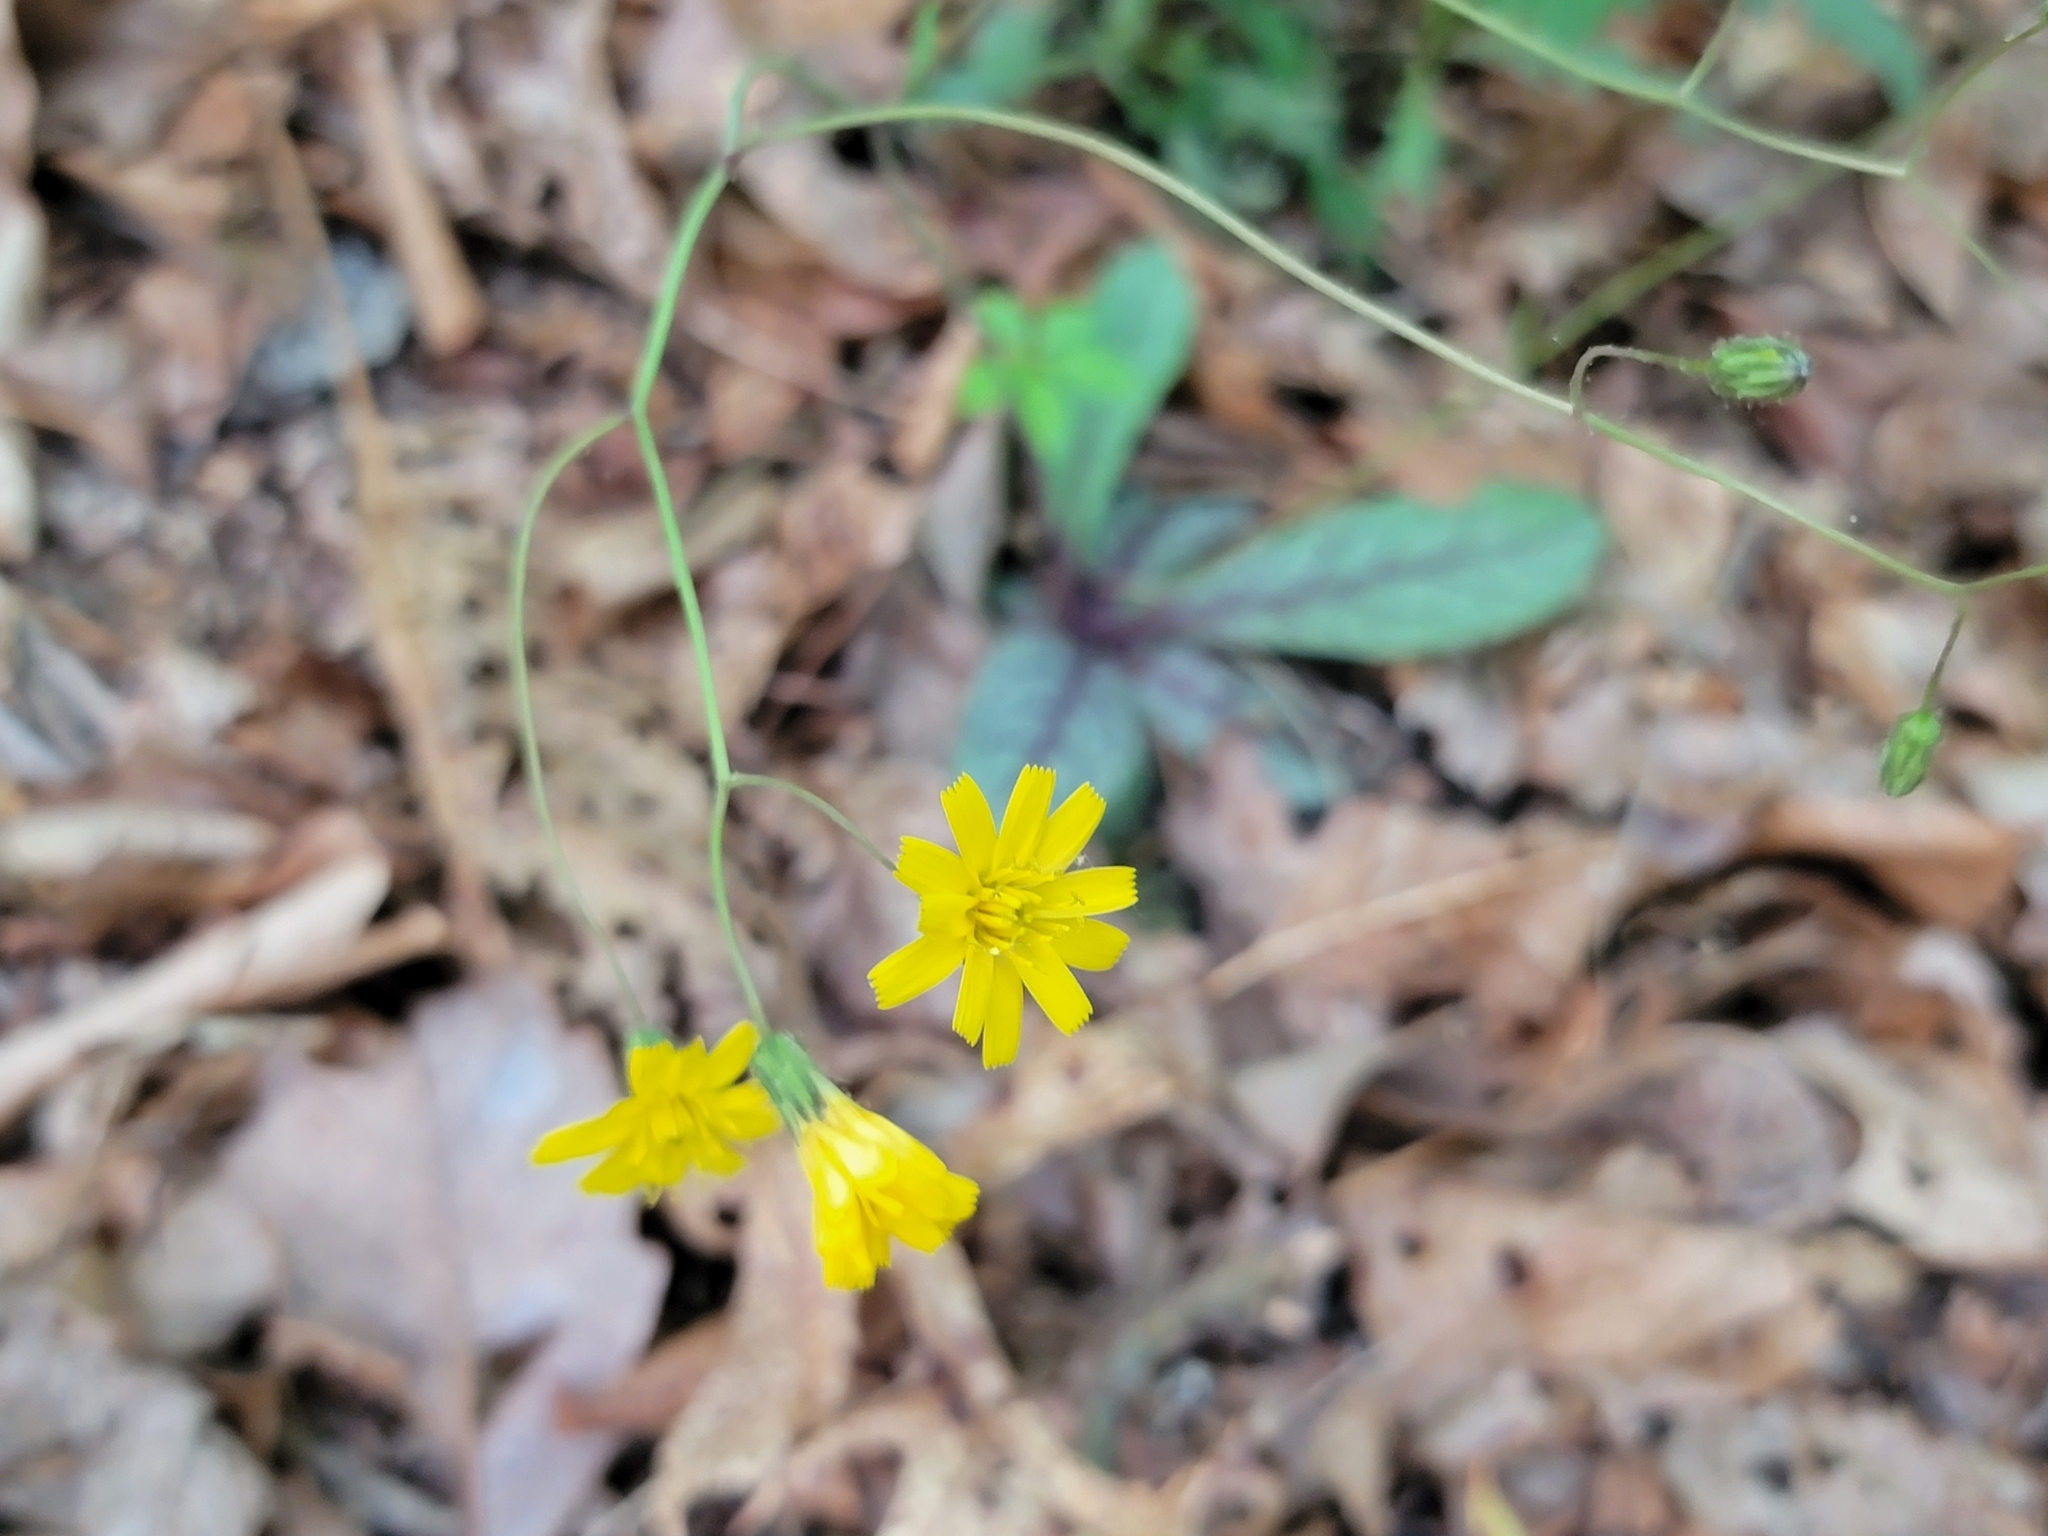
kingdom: Plantae
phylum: Tracheophyta
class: Magnoliopsida
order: Asterales
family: Asteraceae
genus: Hieracium
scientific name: Hieracium venosum
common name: Rattlesnake hawkweed
